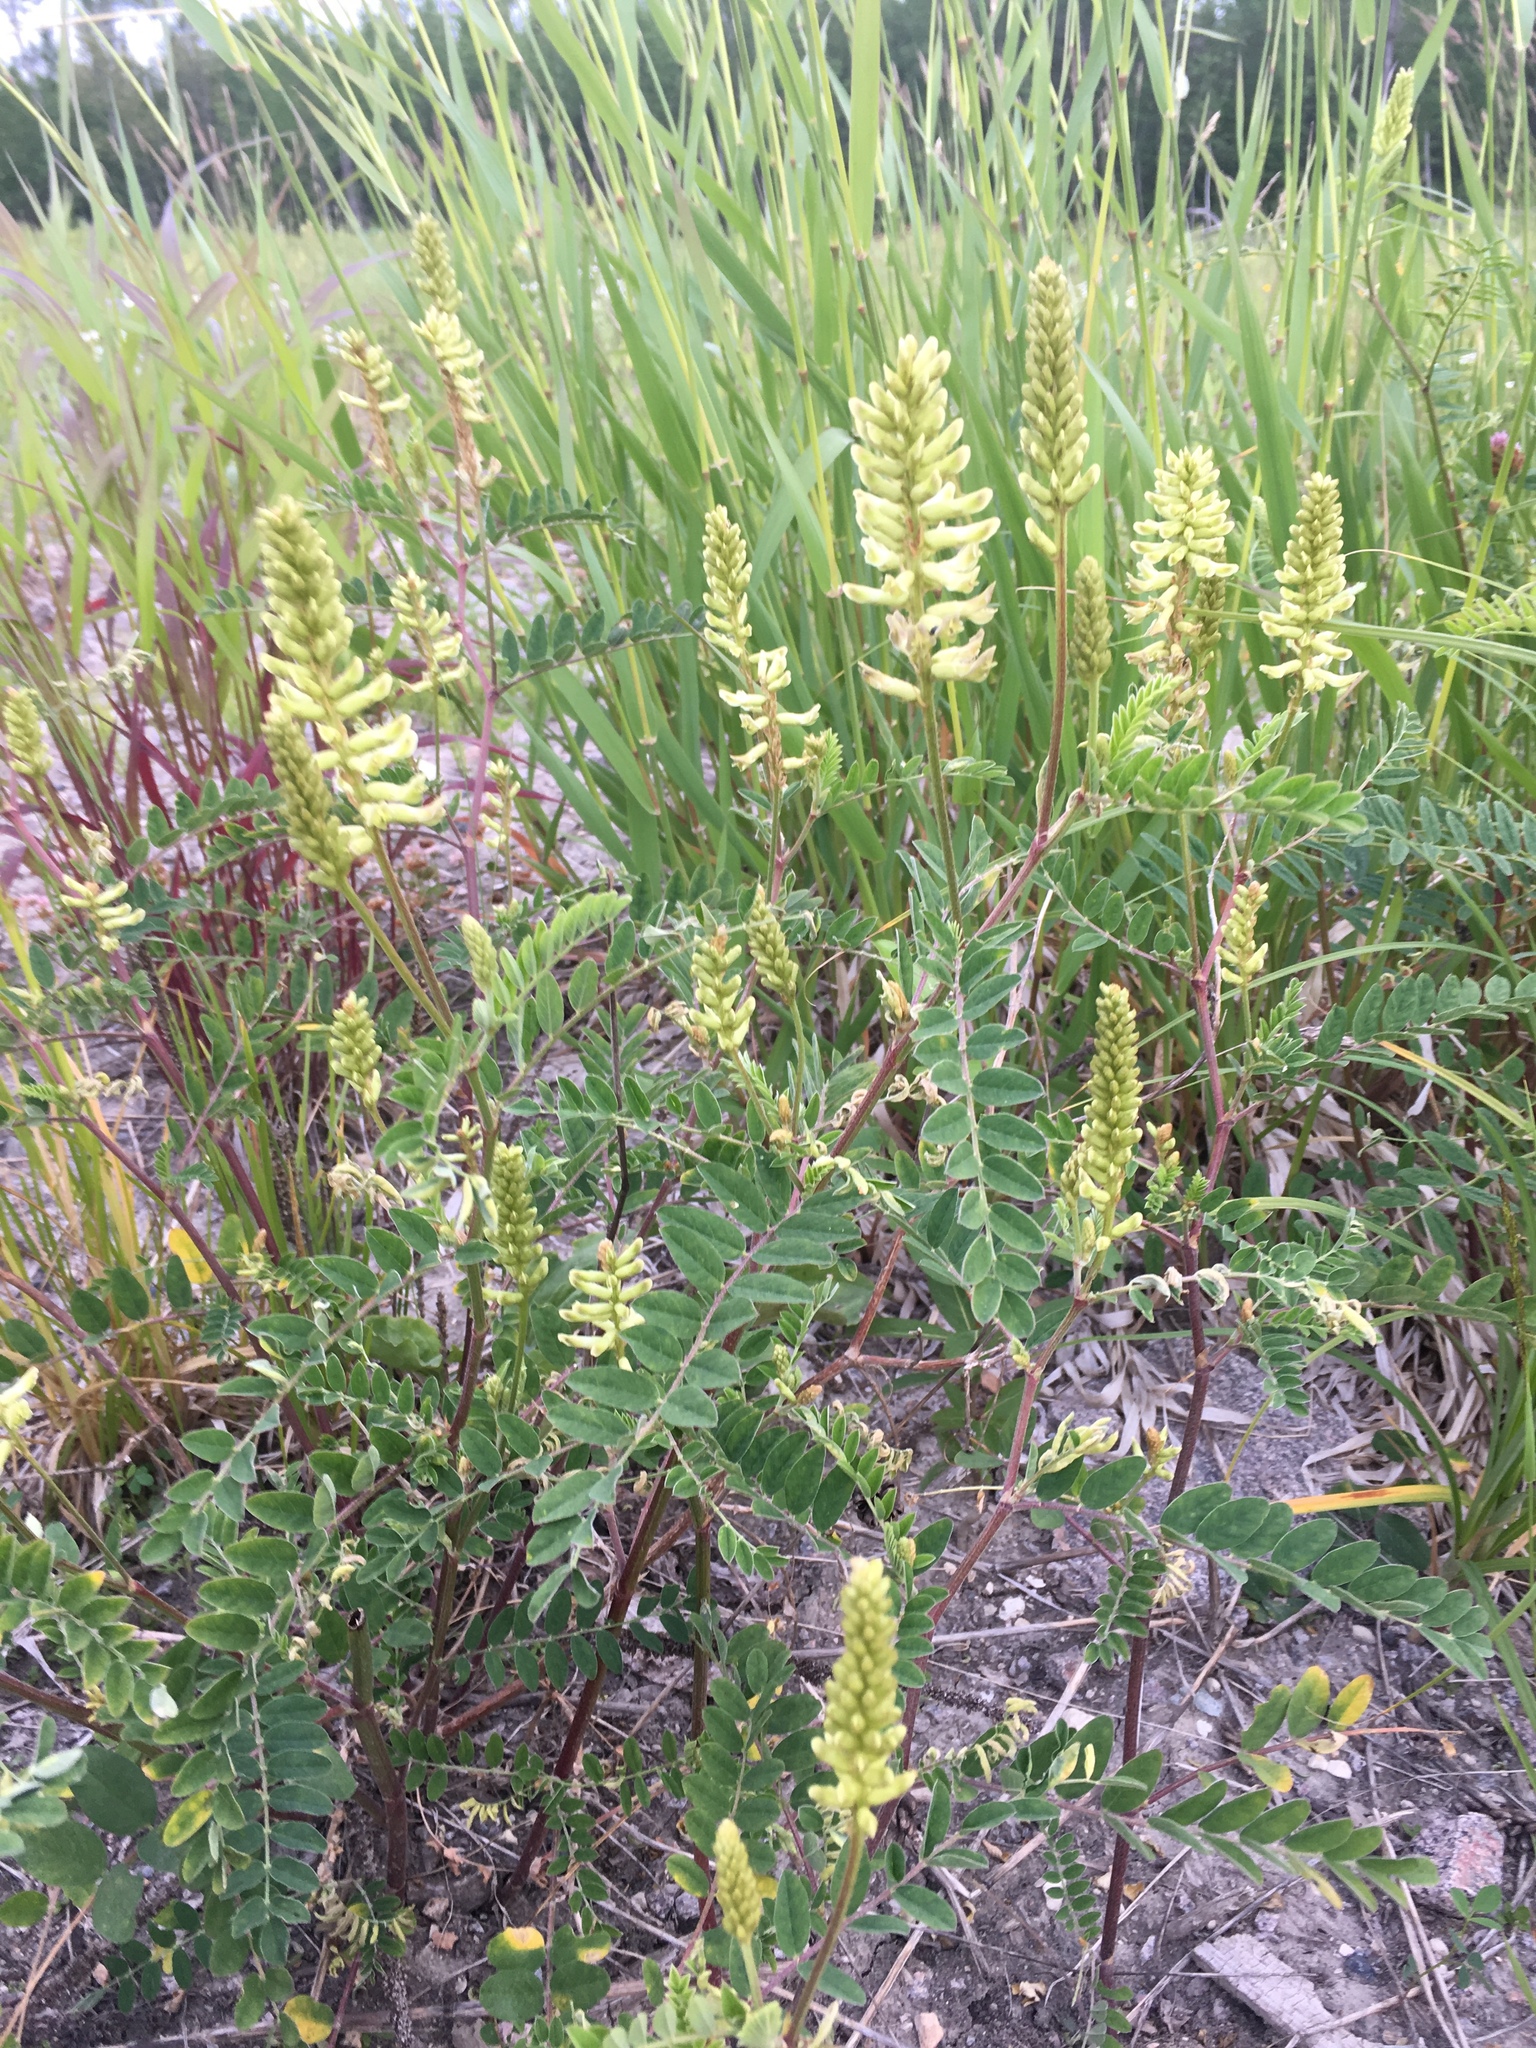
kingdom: Plantae
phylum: Tracheophyta
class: Magnoliopsida
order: Fabales
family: Fabaceae
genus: Astragalus
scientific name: Astragalus canadensis
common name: Canada milk-vetch
